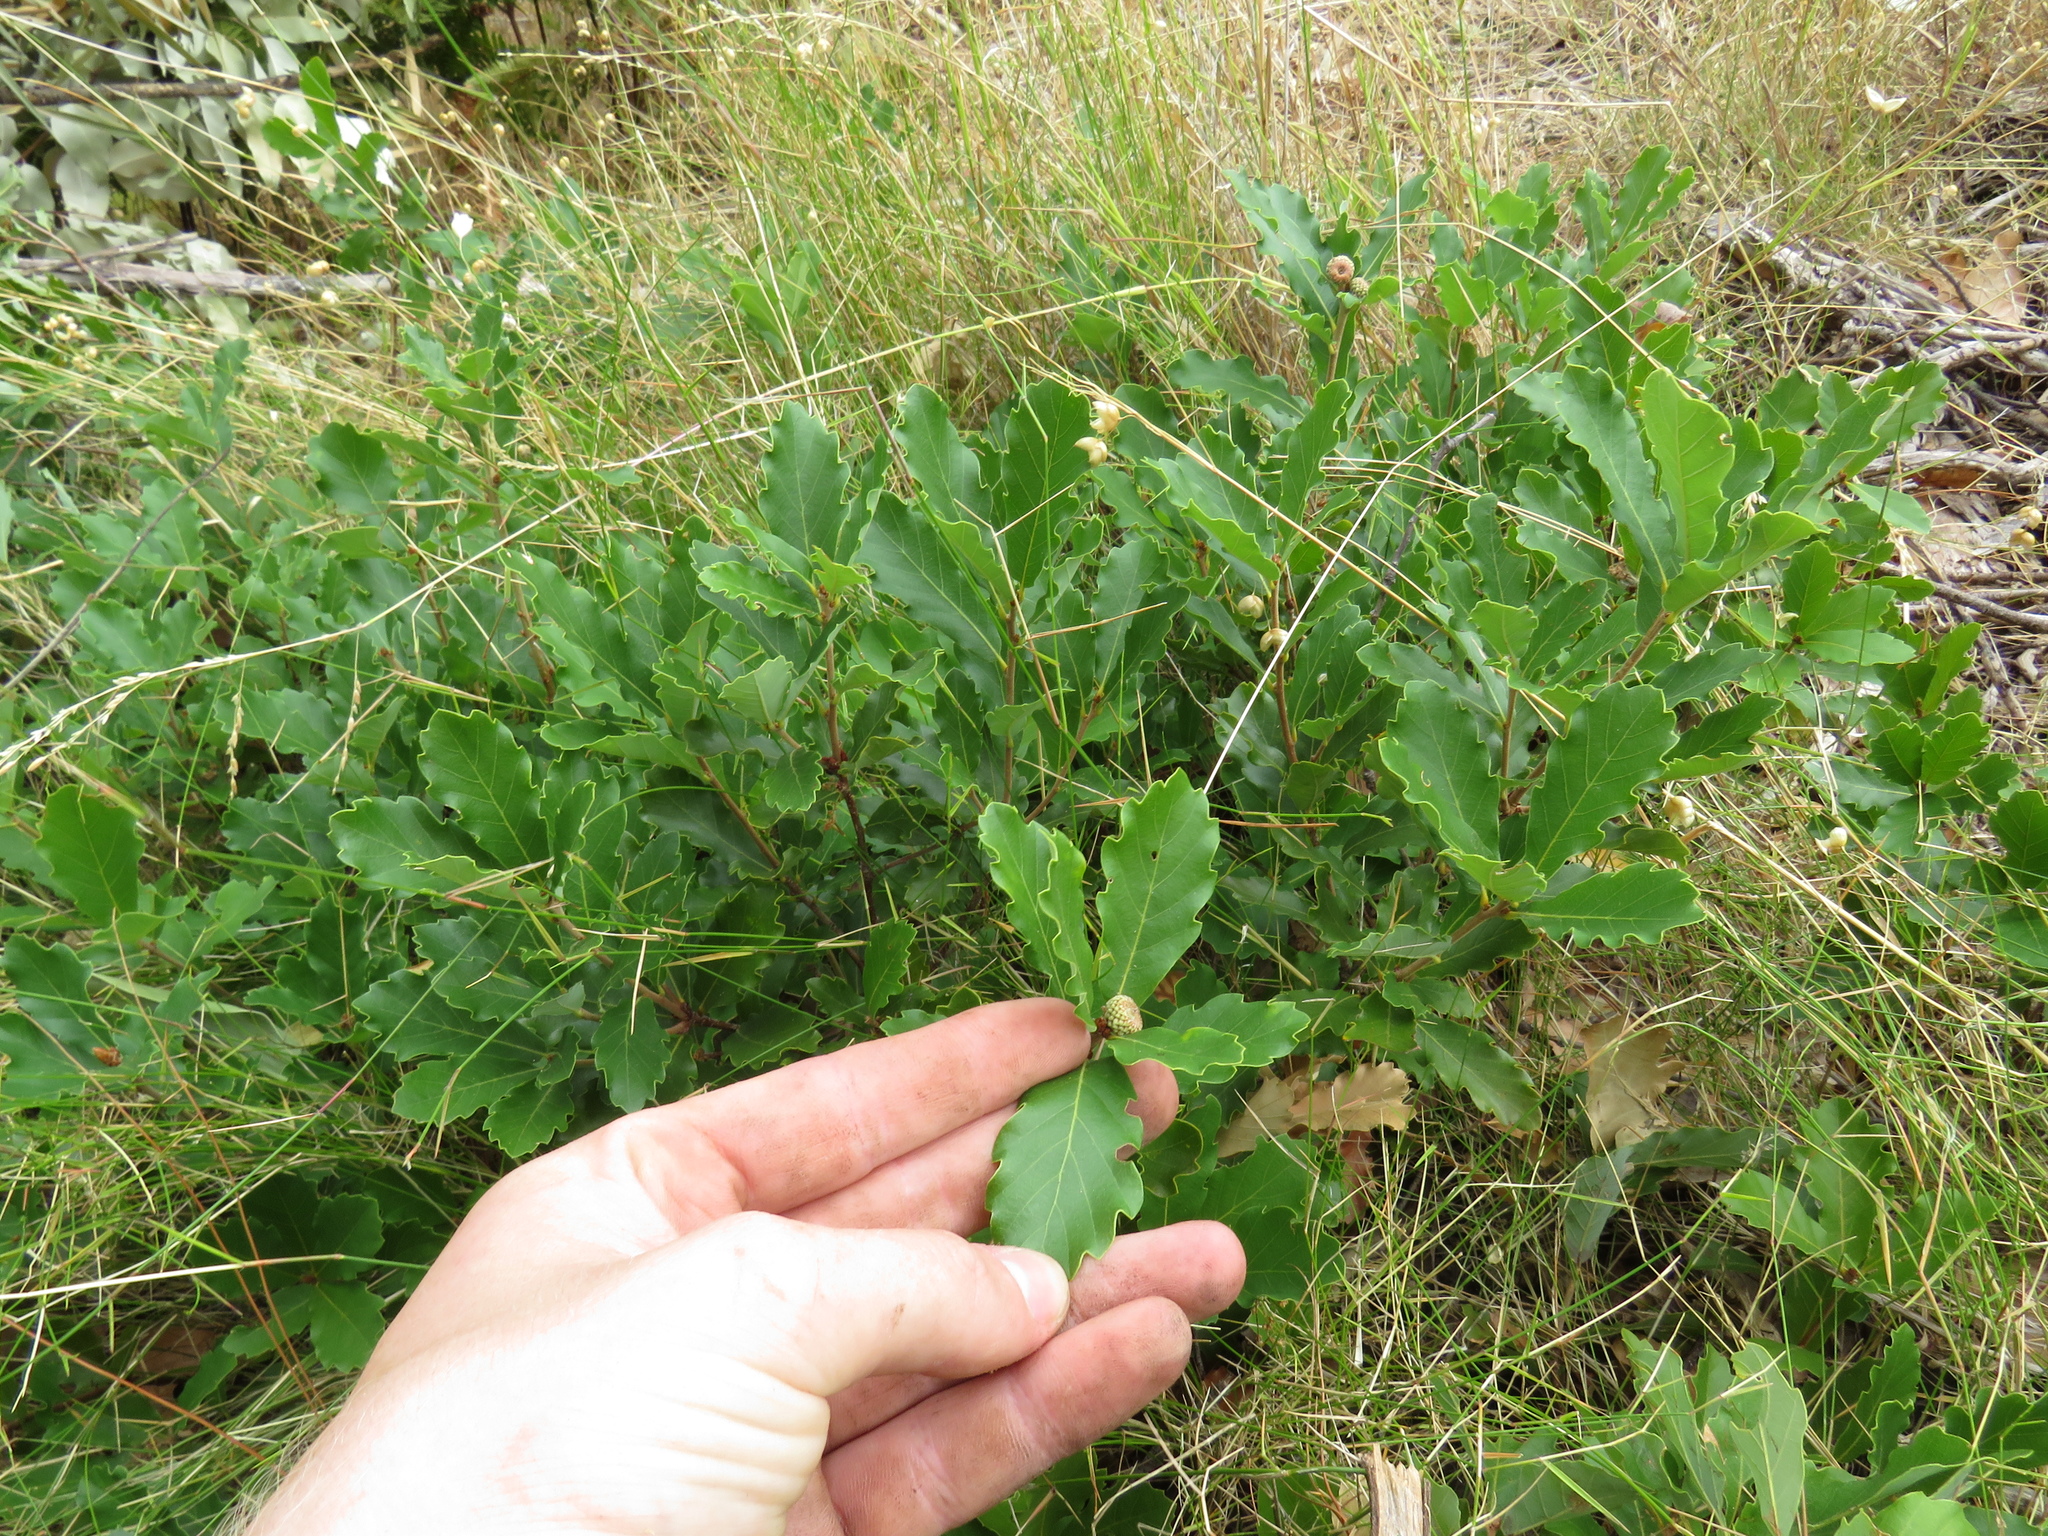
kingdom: Plantae
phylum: Tracheophyta
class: Magnoliopsida
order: Fagales
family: Fagaceae
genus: Quercus
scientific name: Quercus lusitanica
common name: Scrub gall oak
